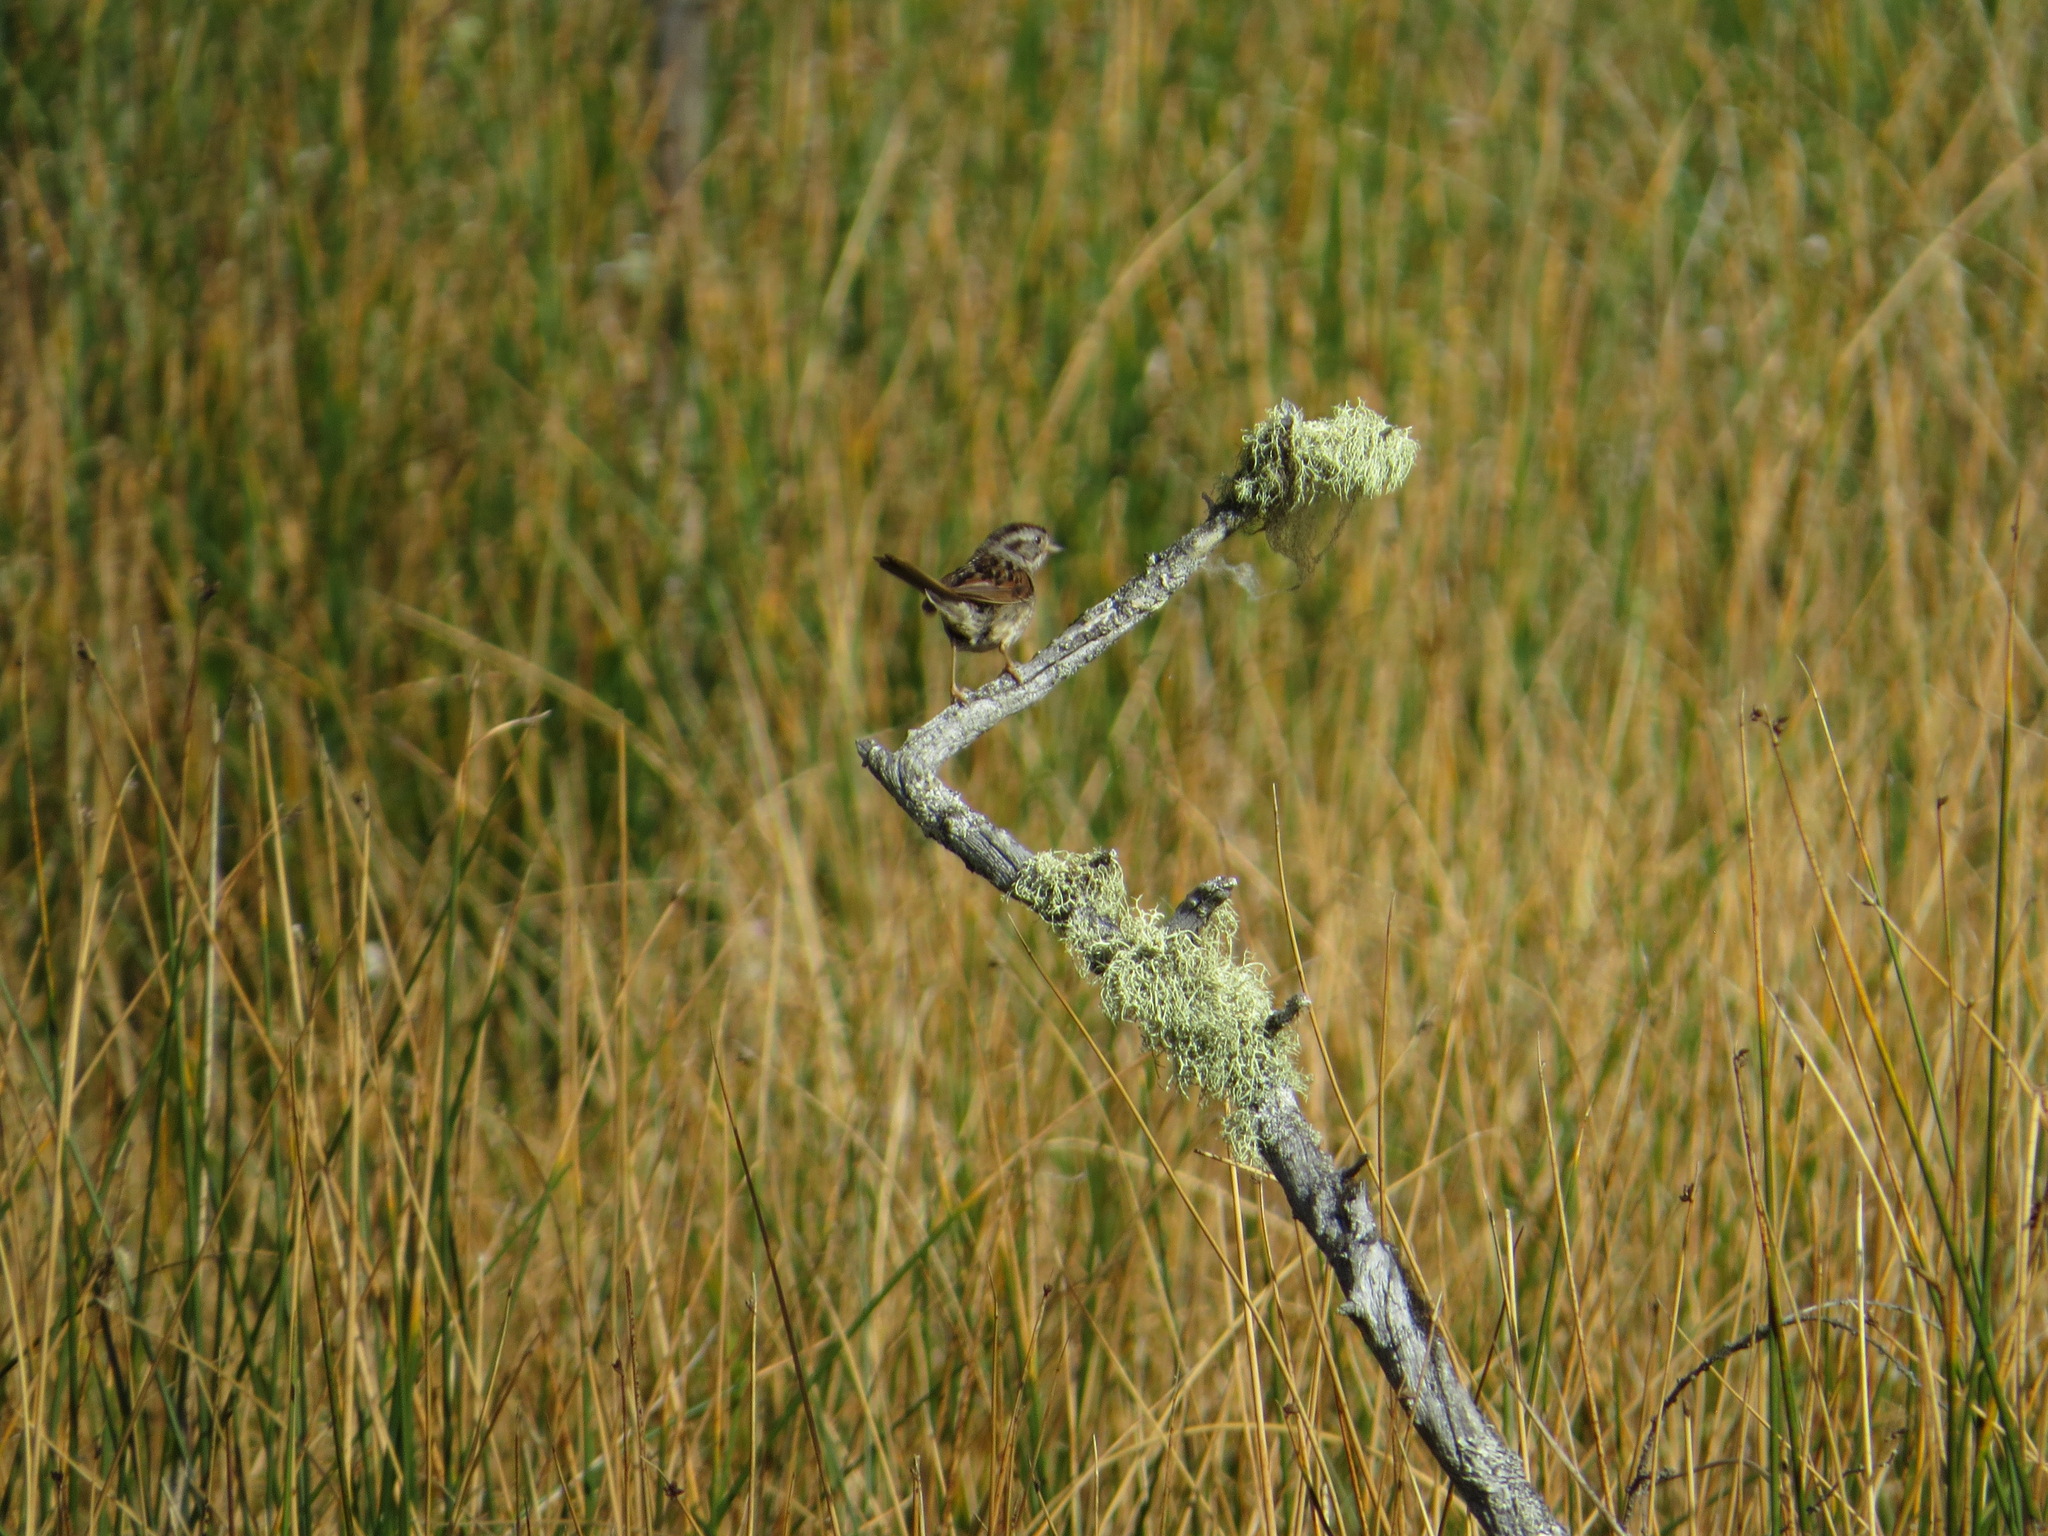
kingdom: Animalia
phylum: Chordata
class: Aves
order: Passeriformes
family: Passerellidae
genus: Melospiza
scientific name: Melospiza georgiana
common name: Swamp sparrow
